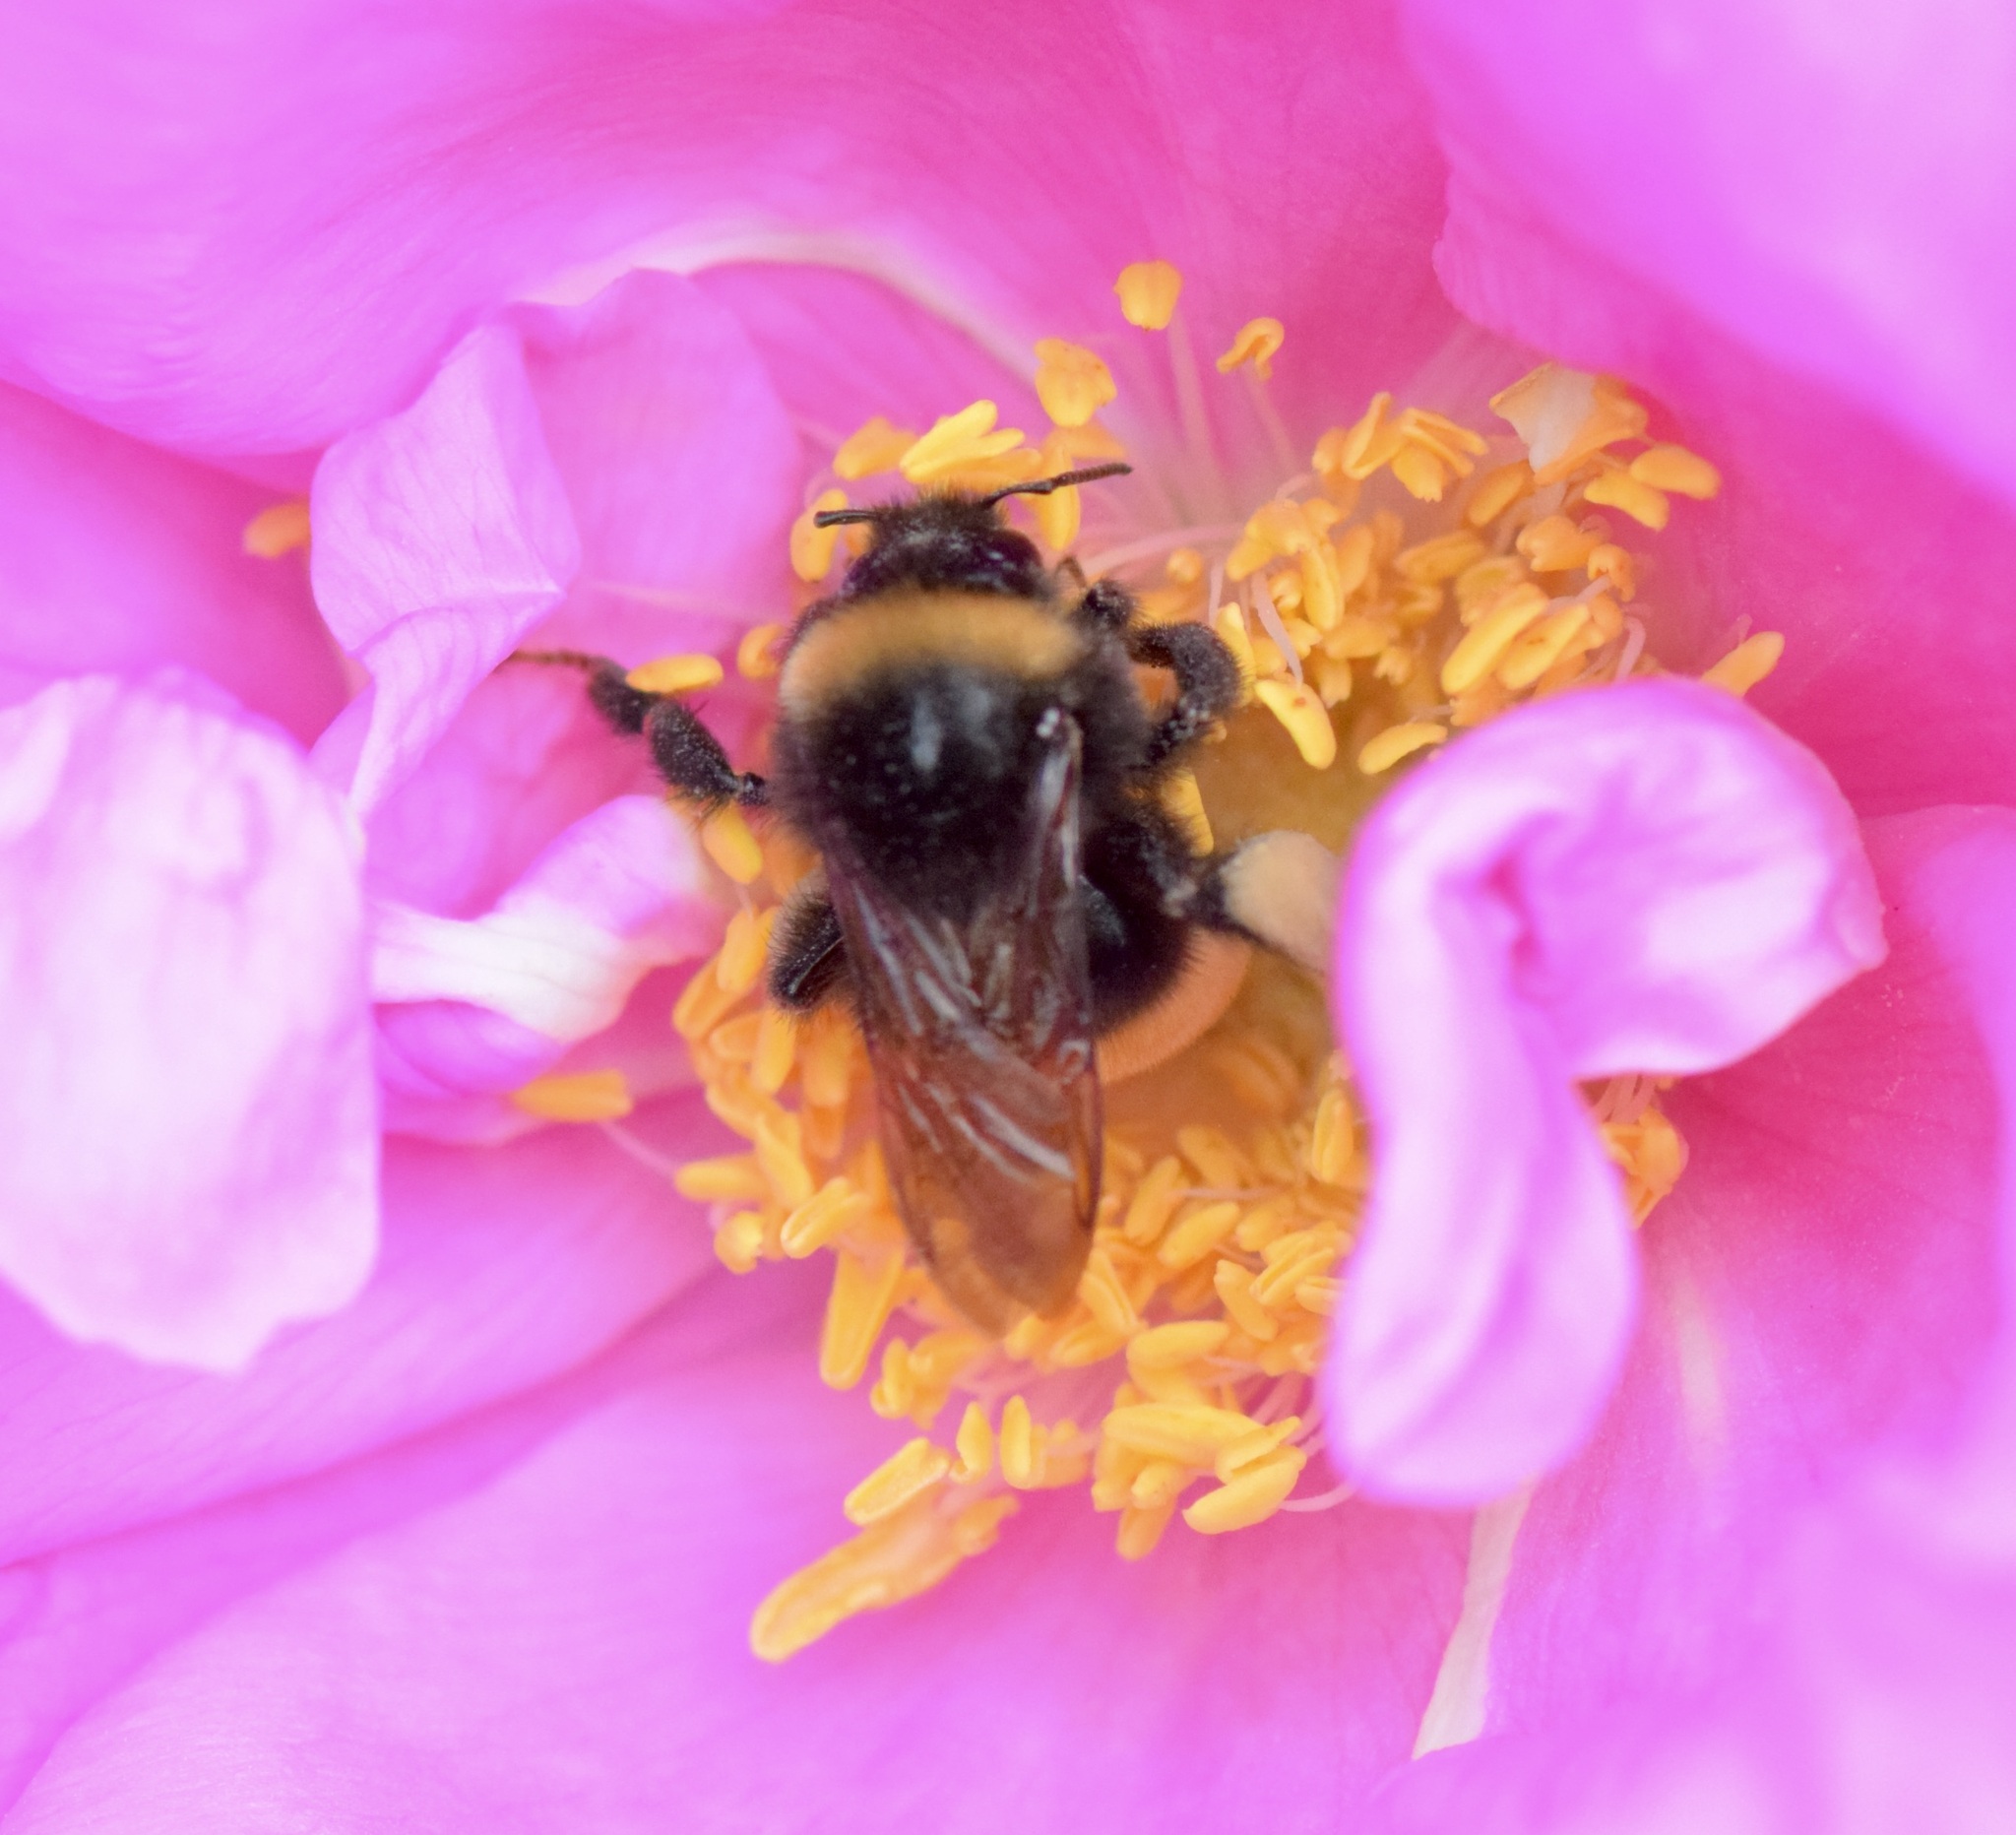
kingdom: Animalia
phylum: Arthropoda
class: Insecta
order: Hymenoptera
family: Apidae
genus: Bombus
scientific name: Bombus terricola
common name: Yellow-banded bumble bee
